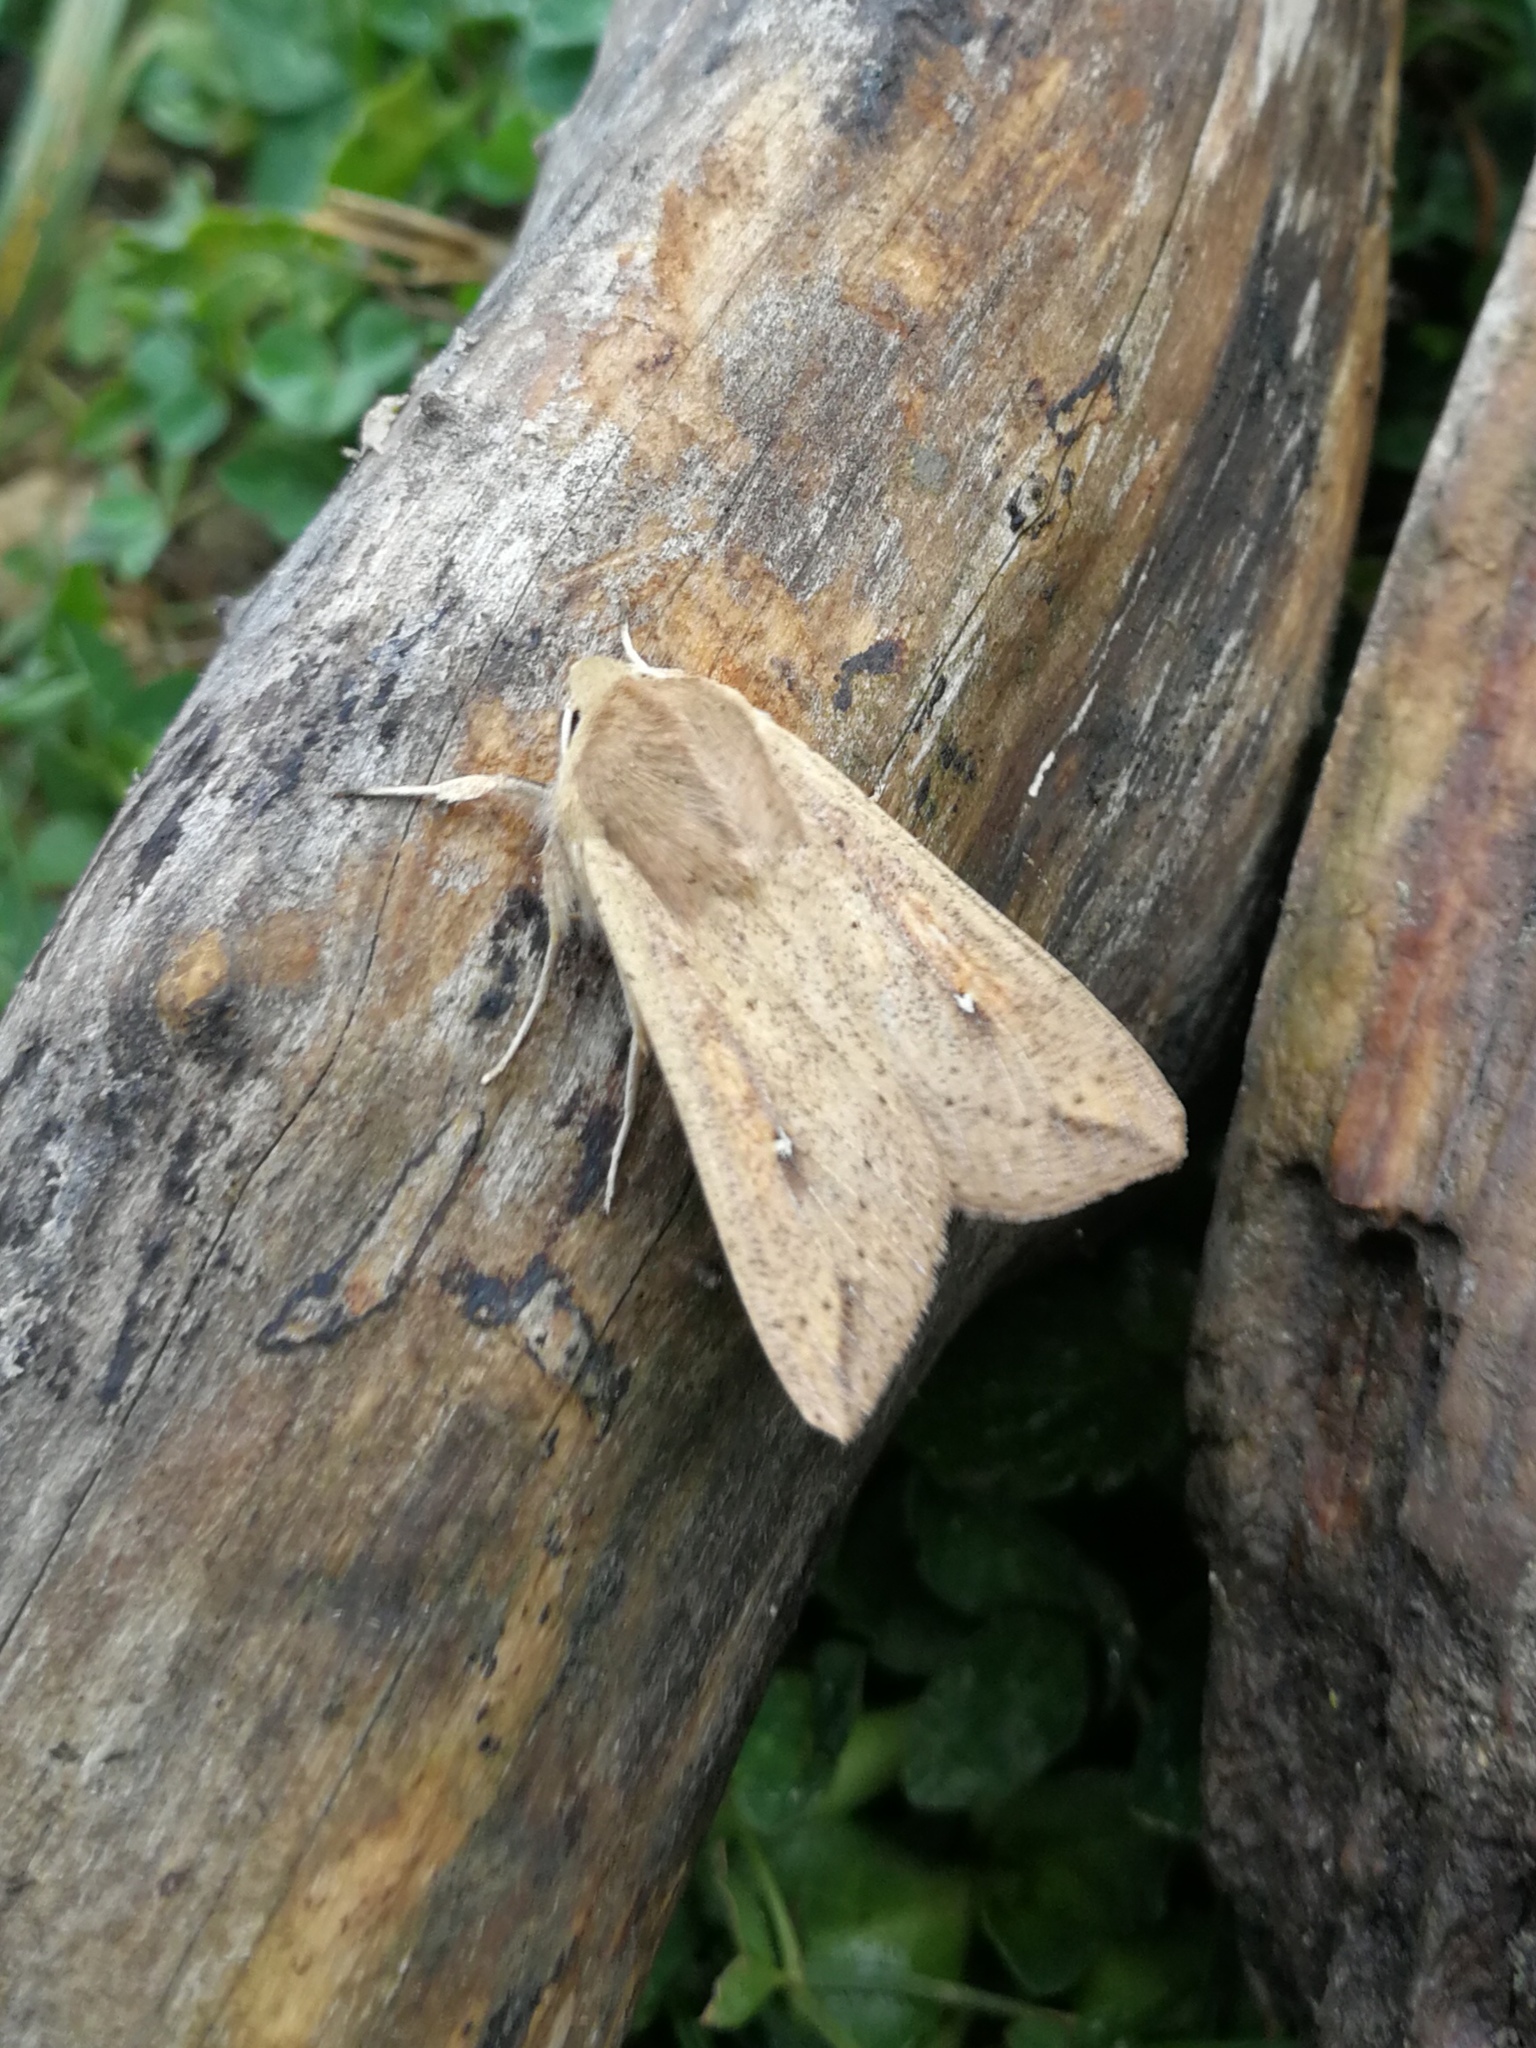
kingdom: Animalia
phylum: Arthropoda
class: Insecta
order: Lepidoptera
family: Noctuidae
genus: Mythimna
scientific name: Mythimna unipuncta
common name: White-speck
